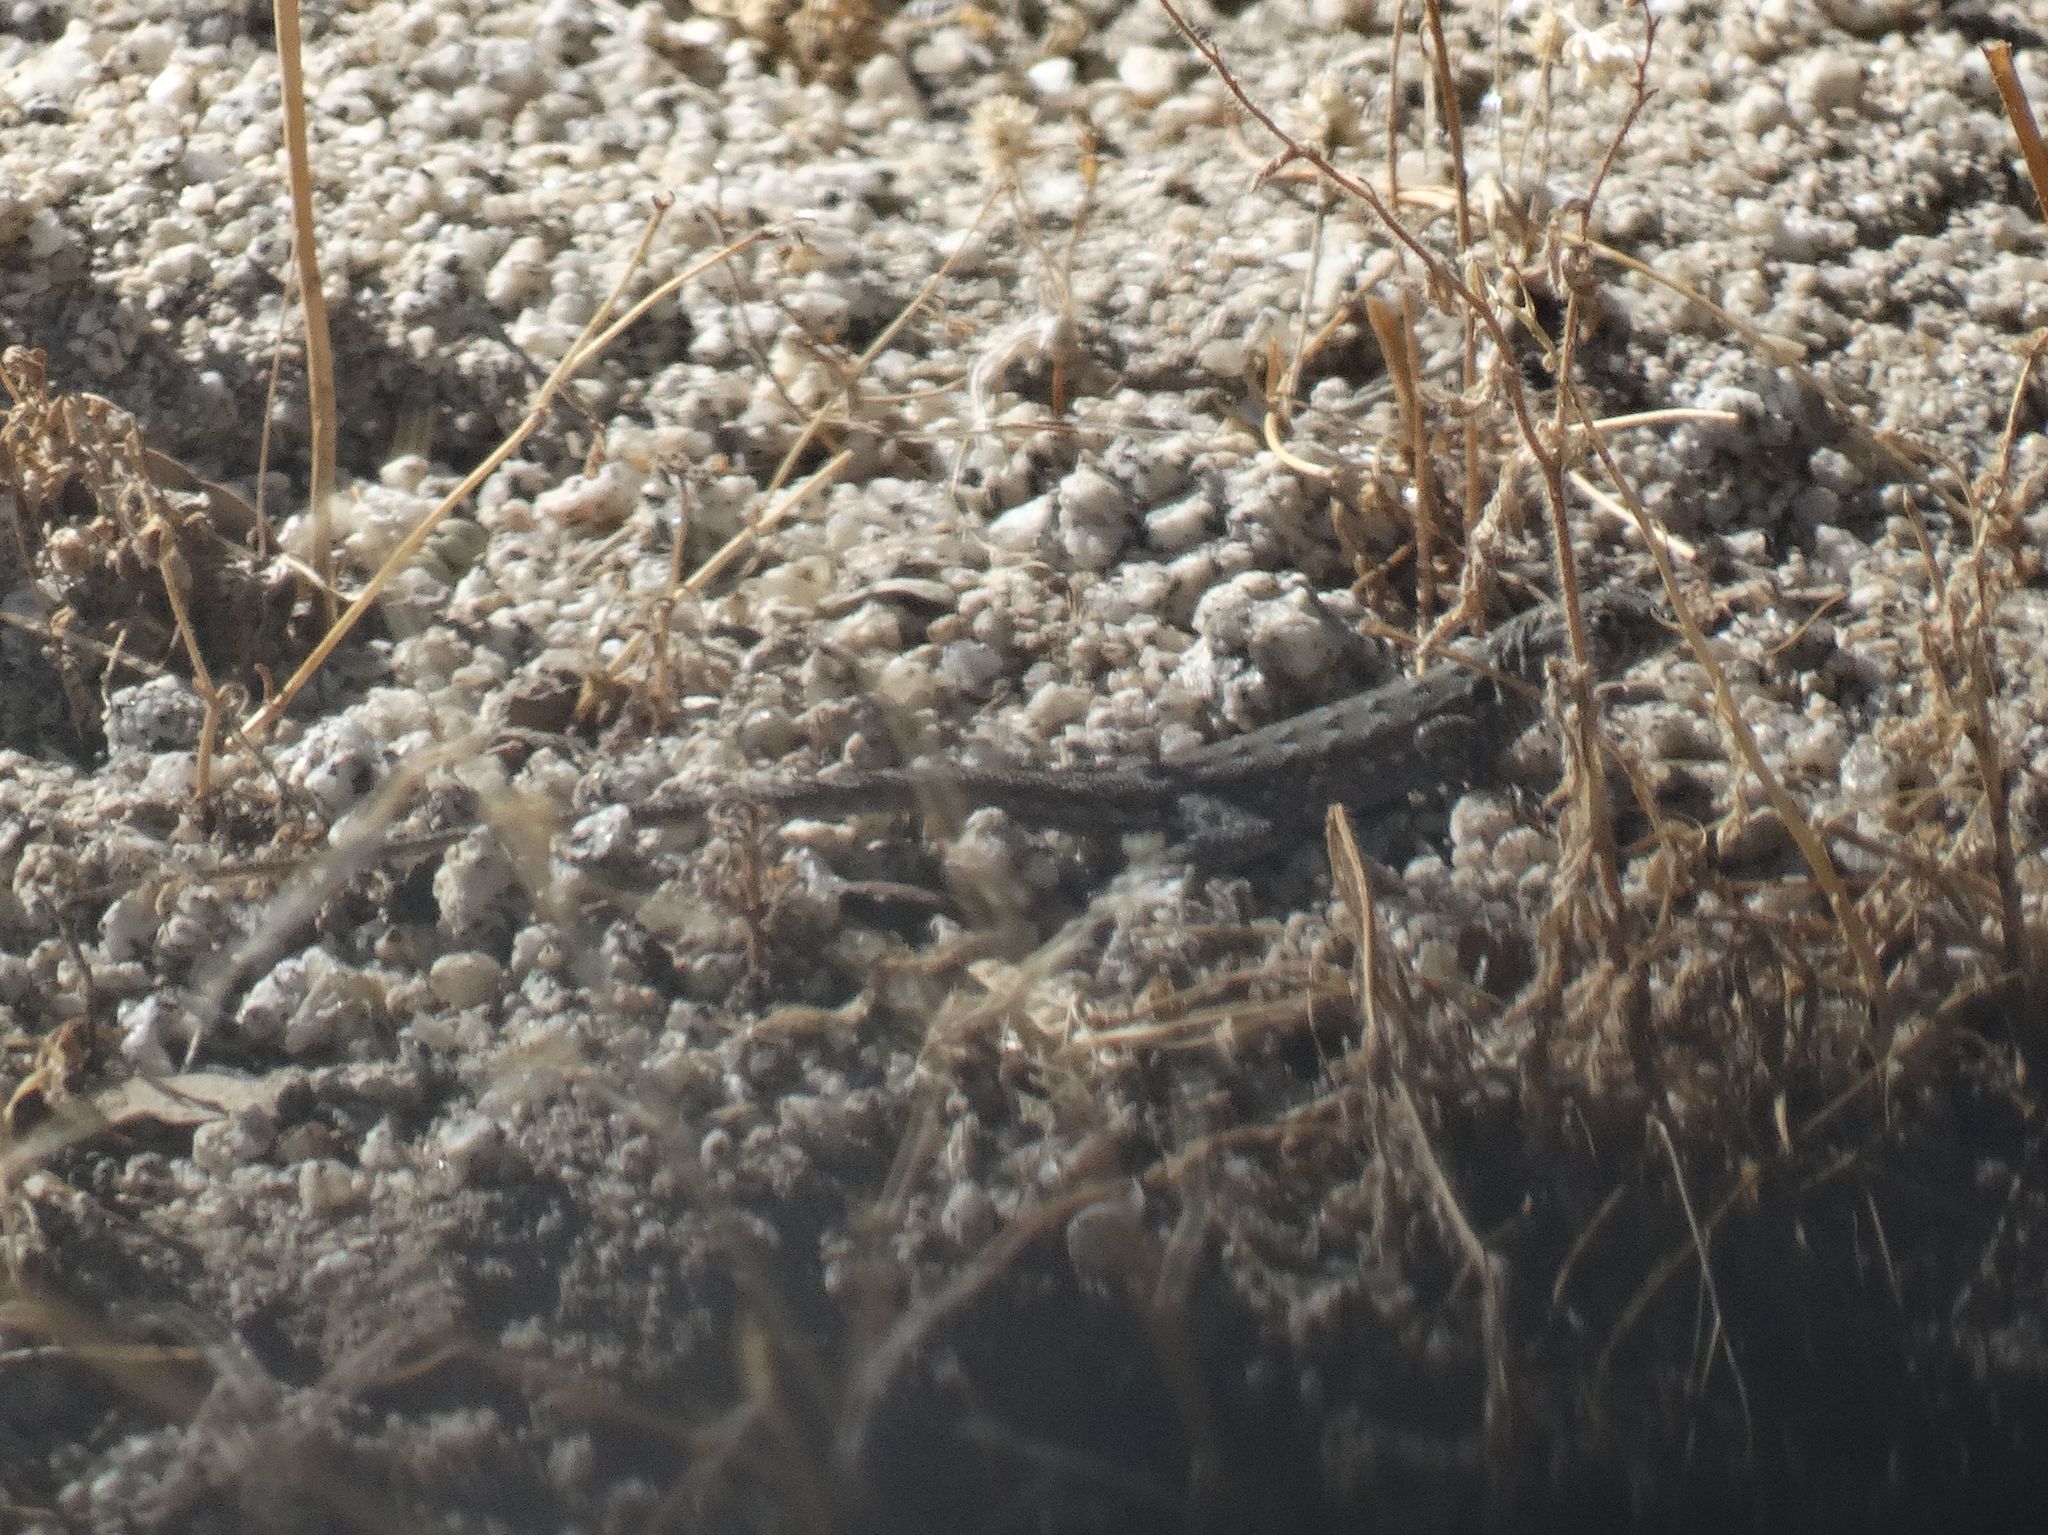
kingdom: Animalia
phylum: Chordata
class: Squamata
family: Phrynosomatidae
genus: Uta
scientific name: Uta stansburiana
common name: Side-blotched lizard
